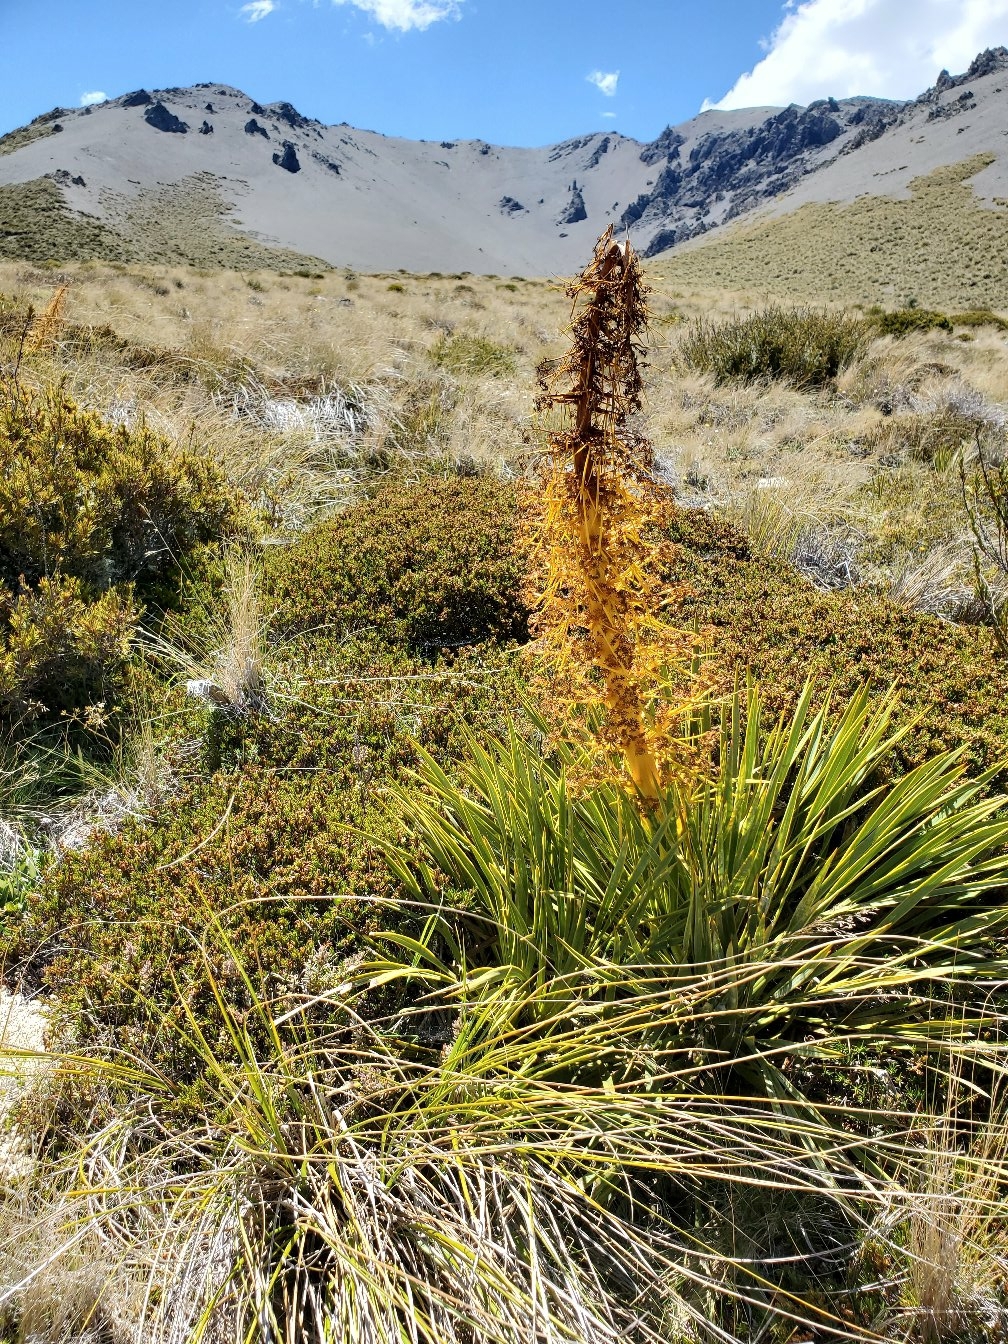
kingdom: Plantae
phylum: Tracheophyta
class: Magnoliopsida
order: Apiales
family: Apiaceae
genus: Aciphylla
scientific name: Aciphylla aurea
